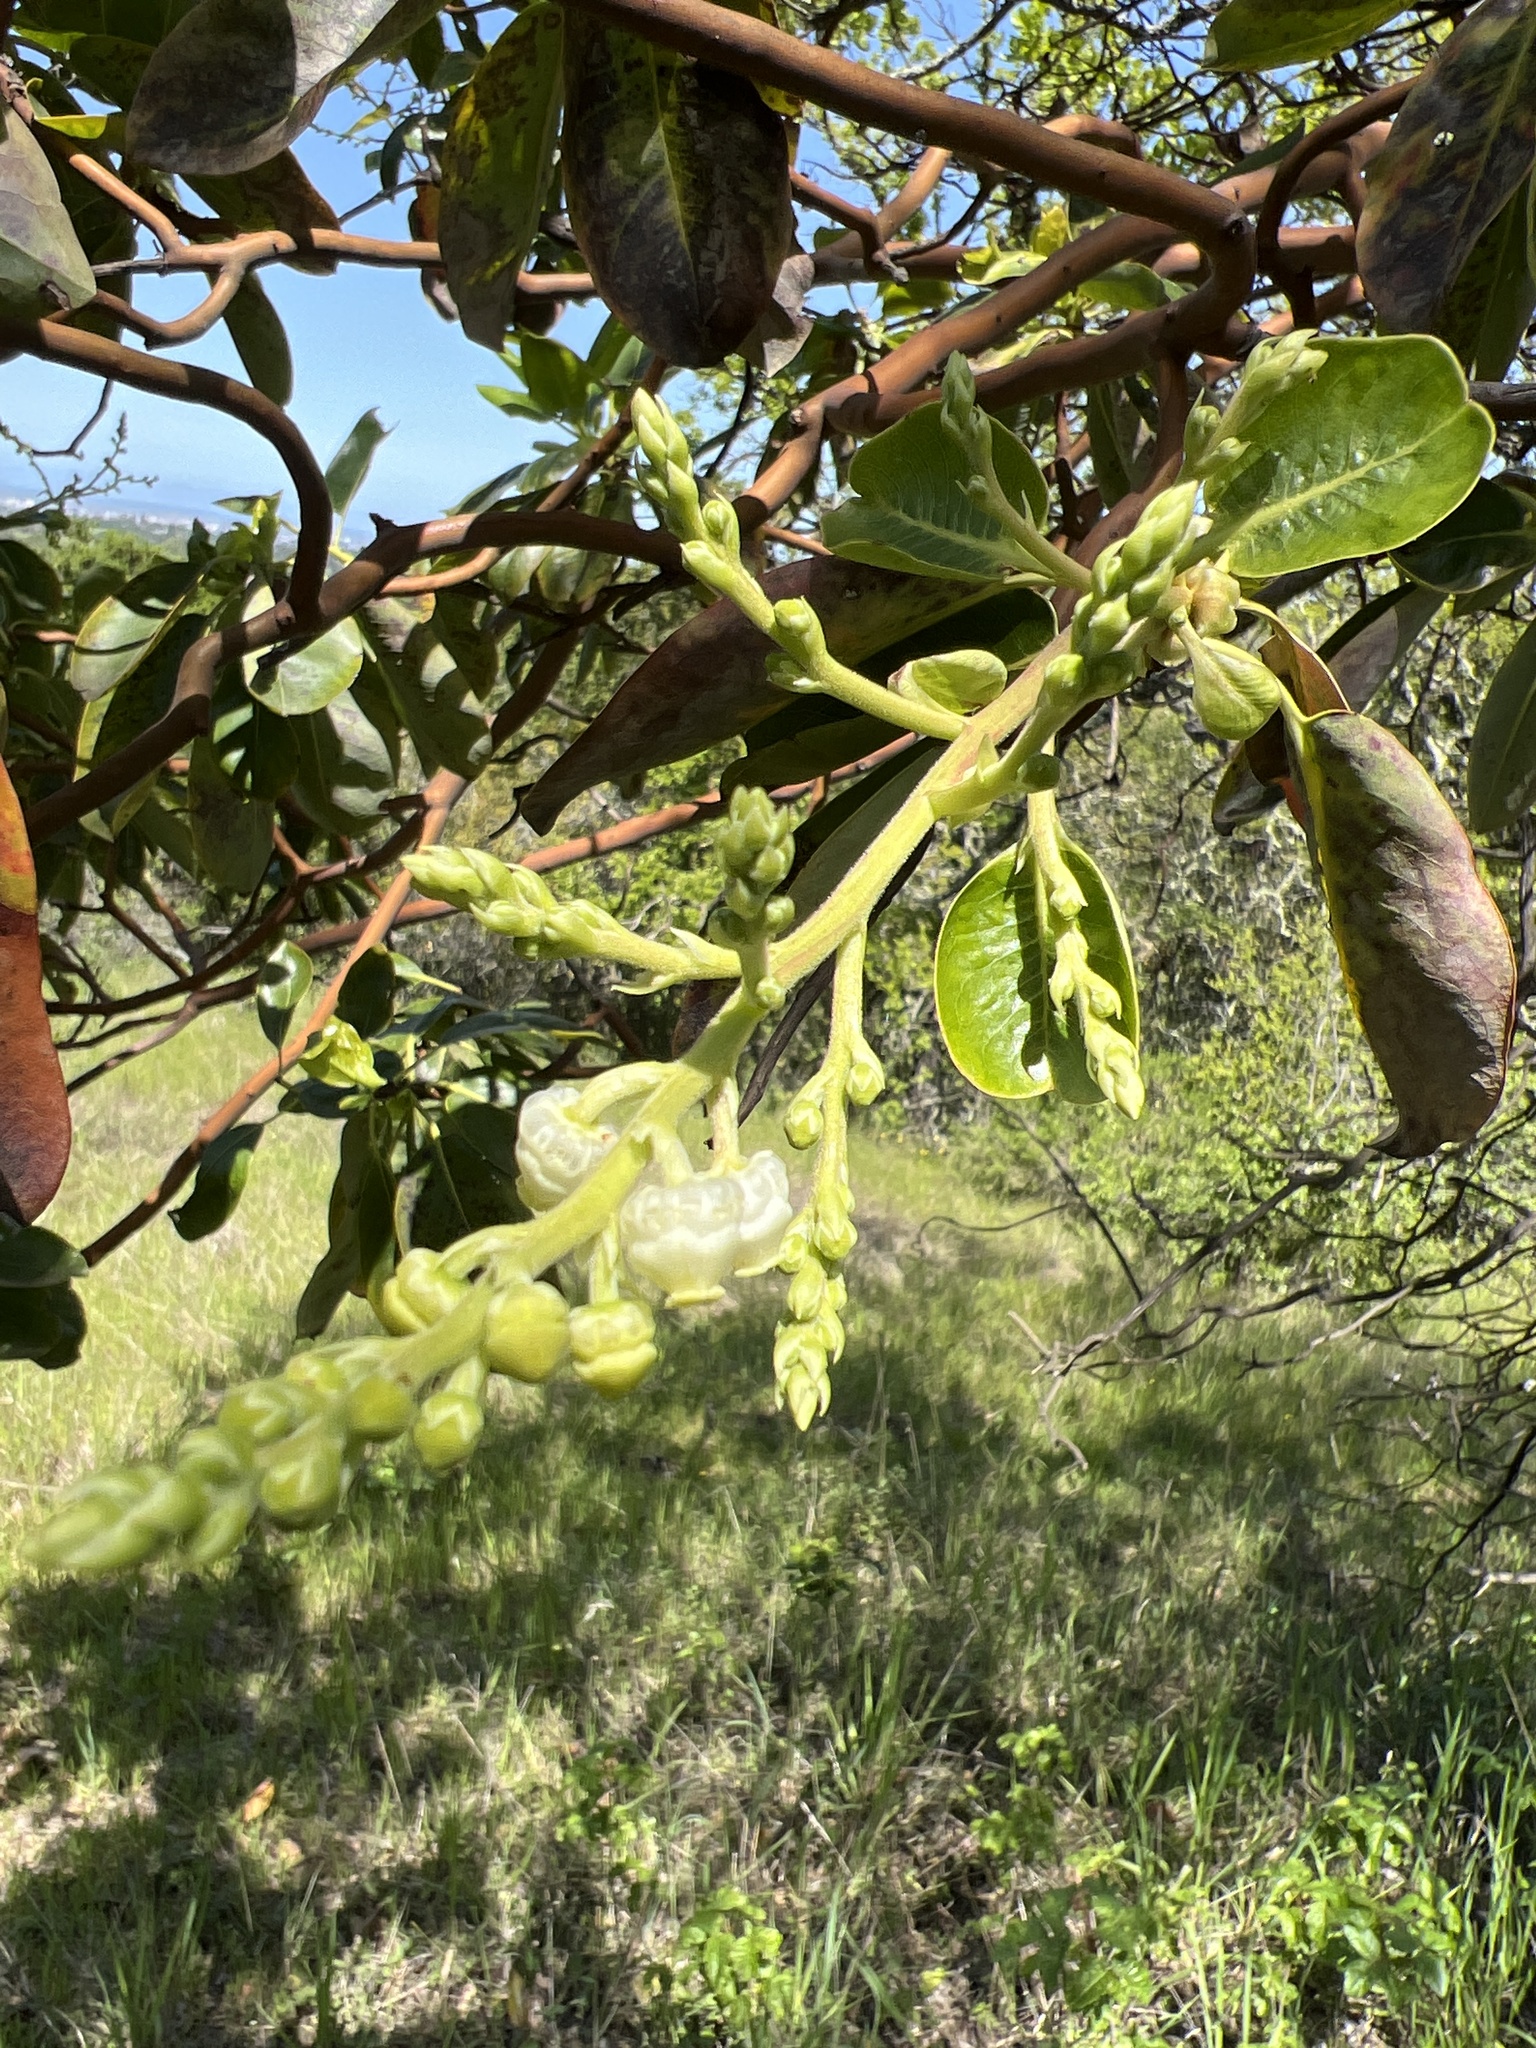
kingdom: Plantae
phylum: Tracheophyta
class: Magnoliopsida
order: Ericales
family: Ericaceae
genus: Arbutus
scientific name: Arbutus menziesii
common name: Pacific madrone
